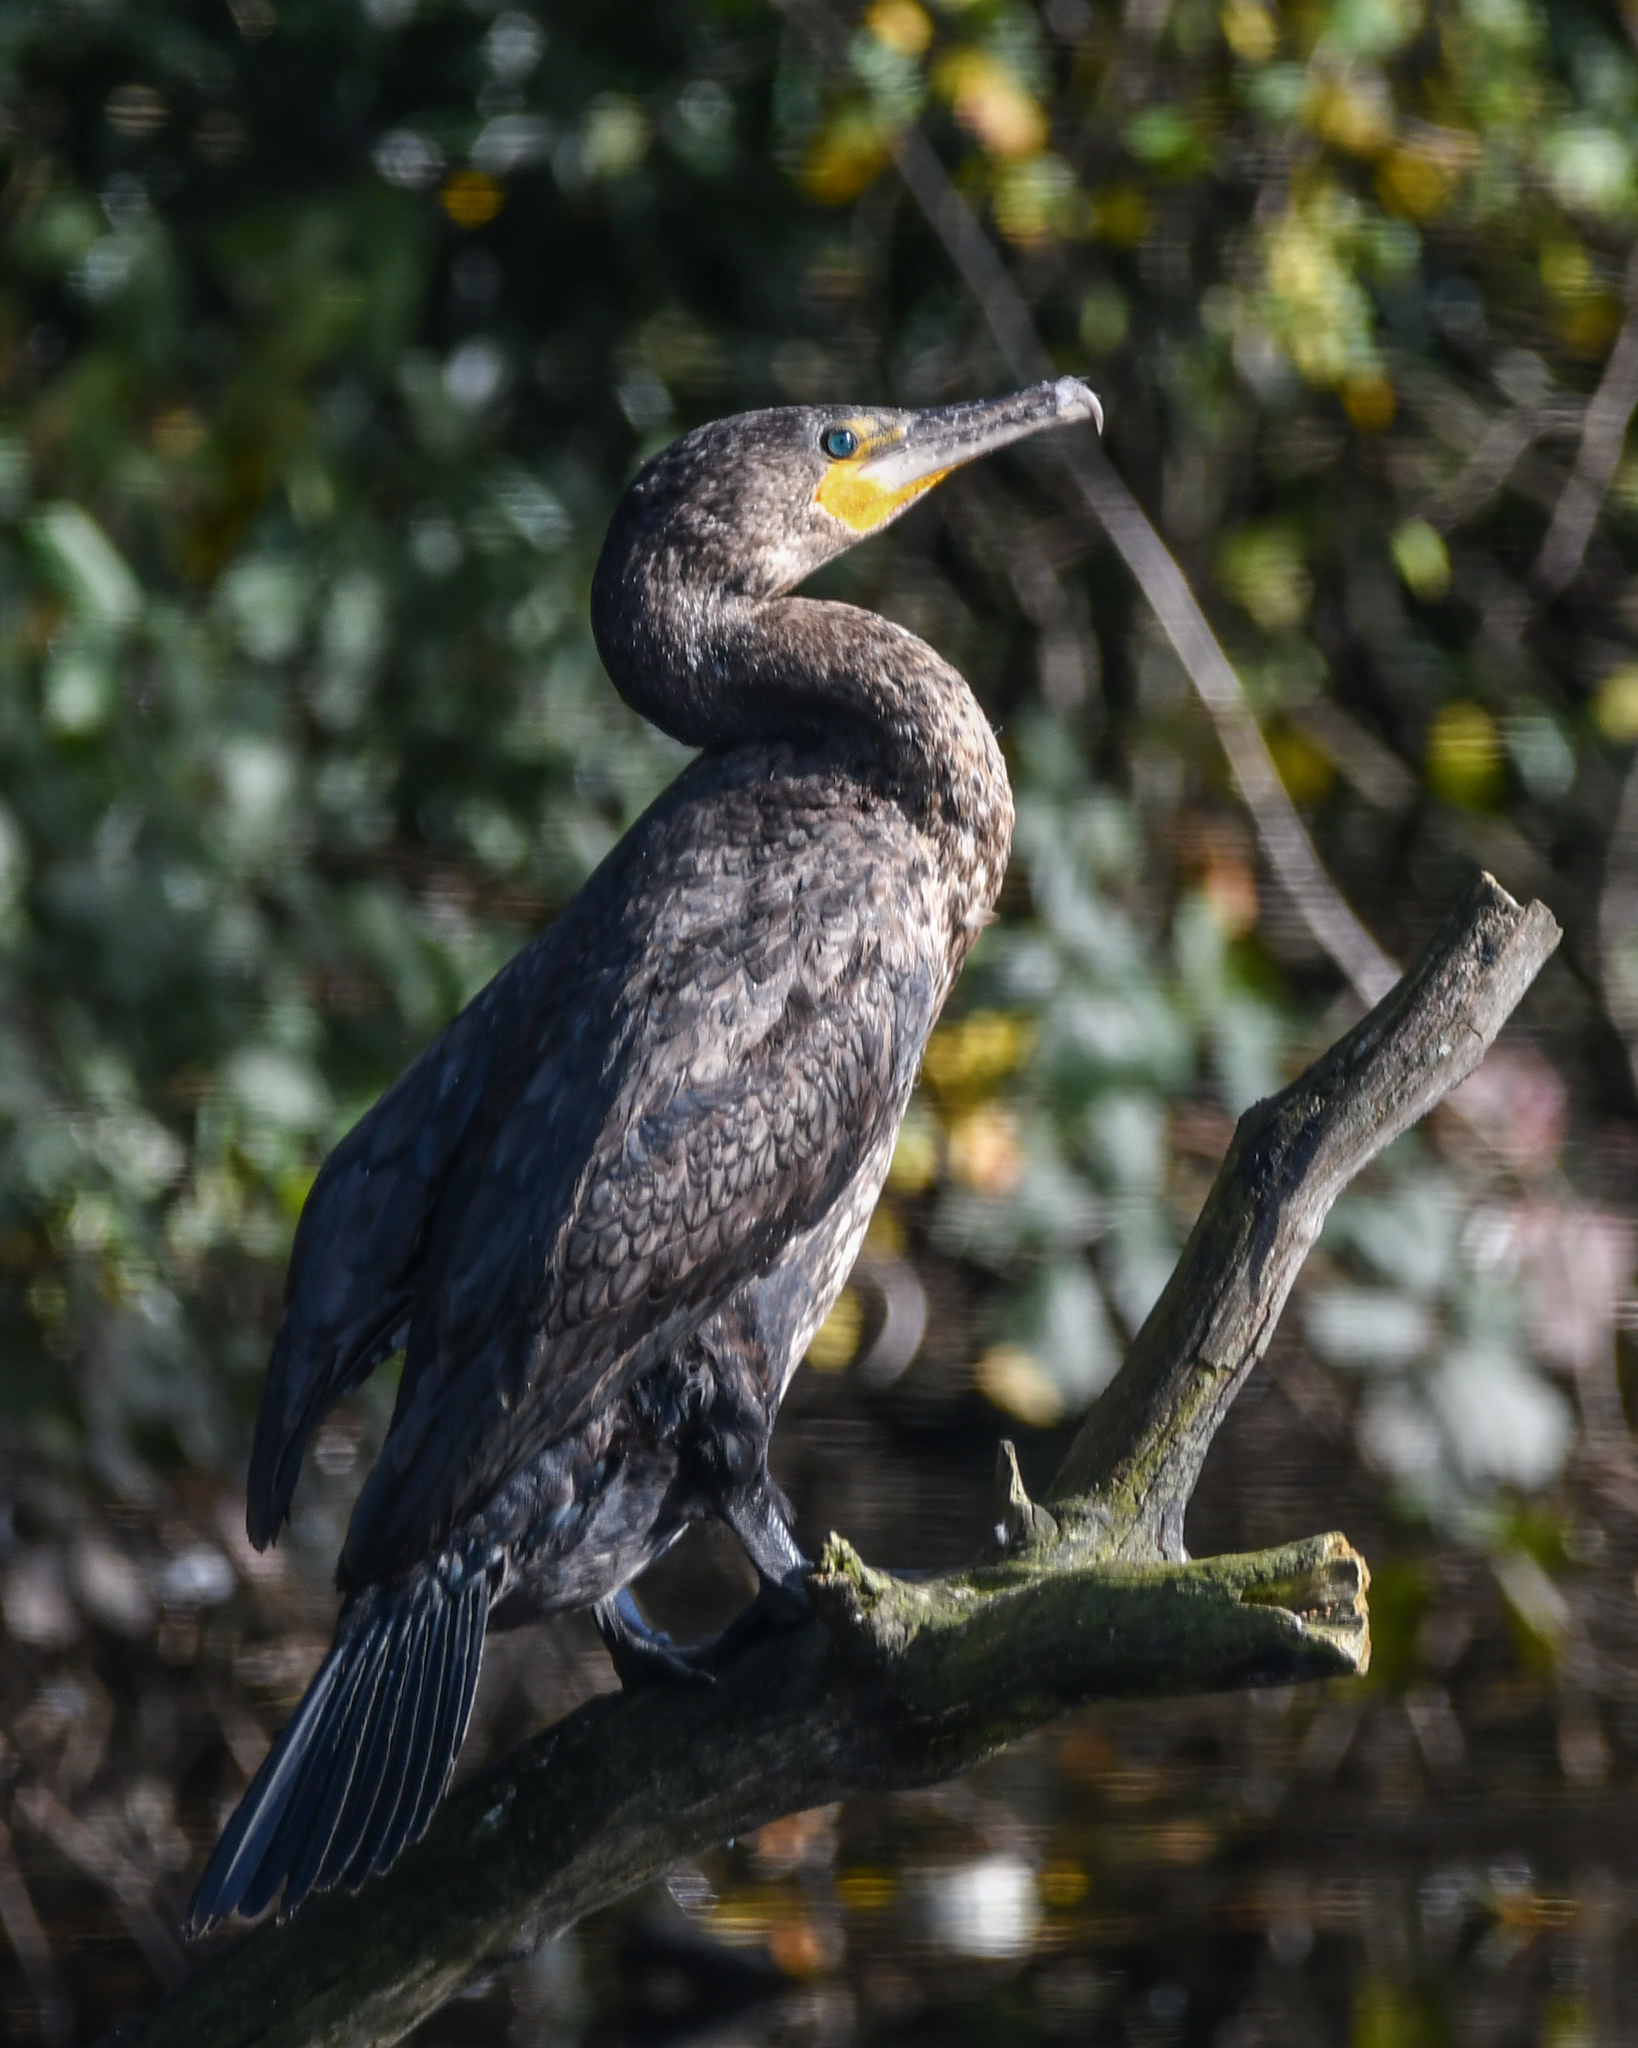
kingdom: Animalia
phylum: Chordata
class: Aves
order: Suliformes
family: Phalacrocoracidae
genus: Phalacrocorax
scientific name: Phalacrocorax carbo
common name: Great cormorant
